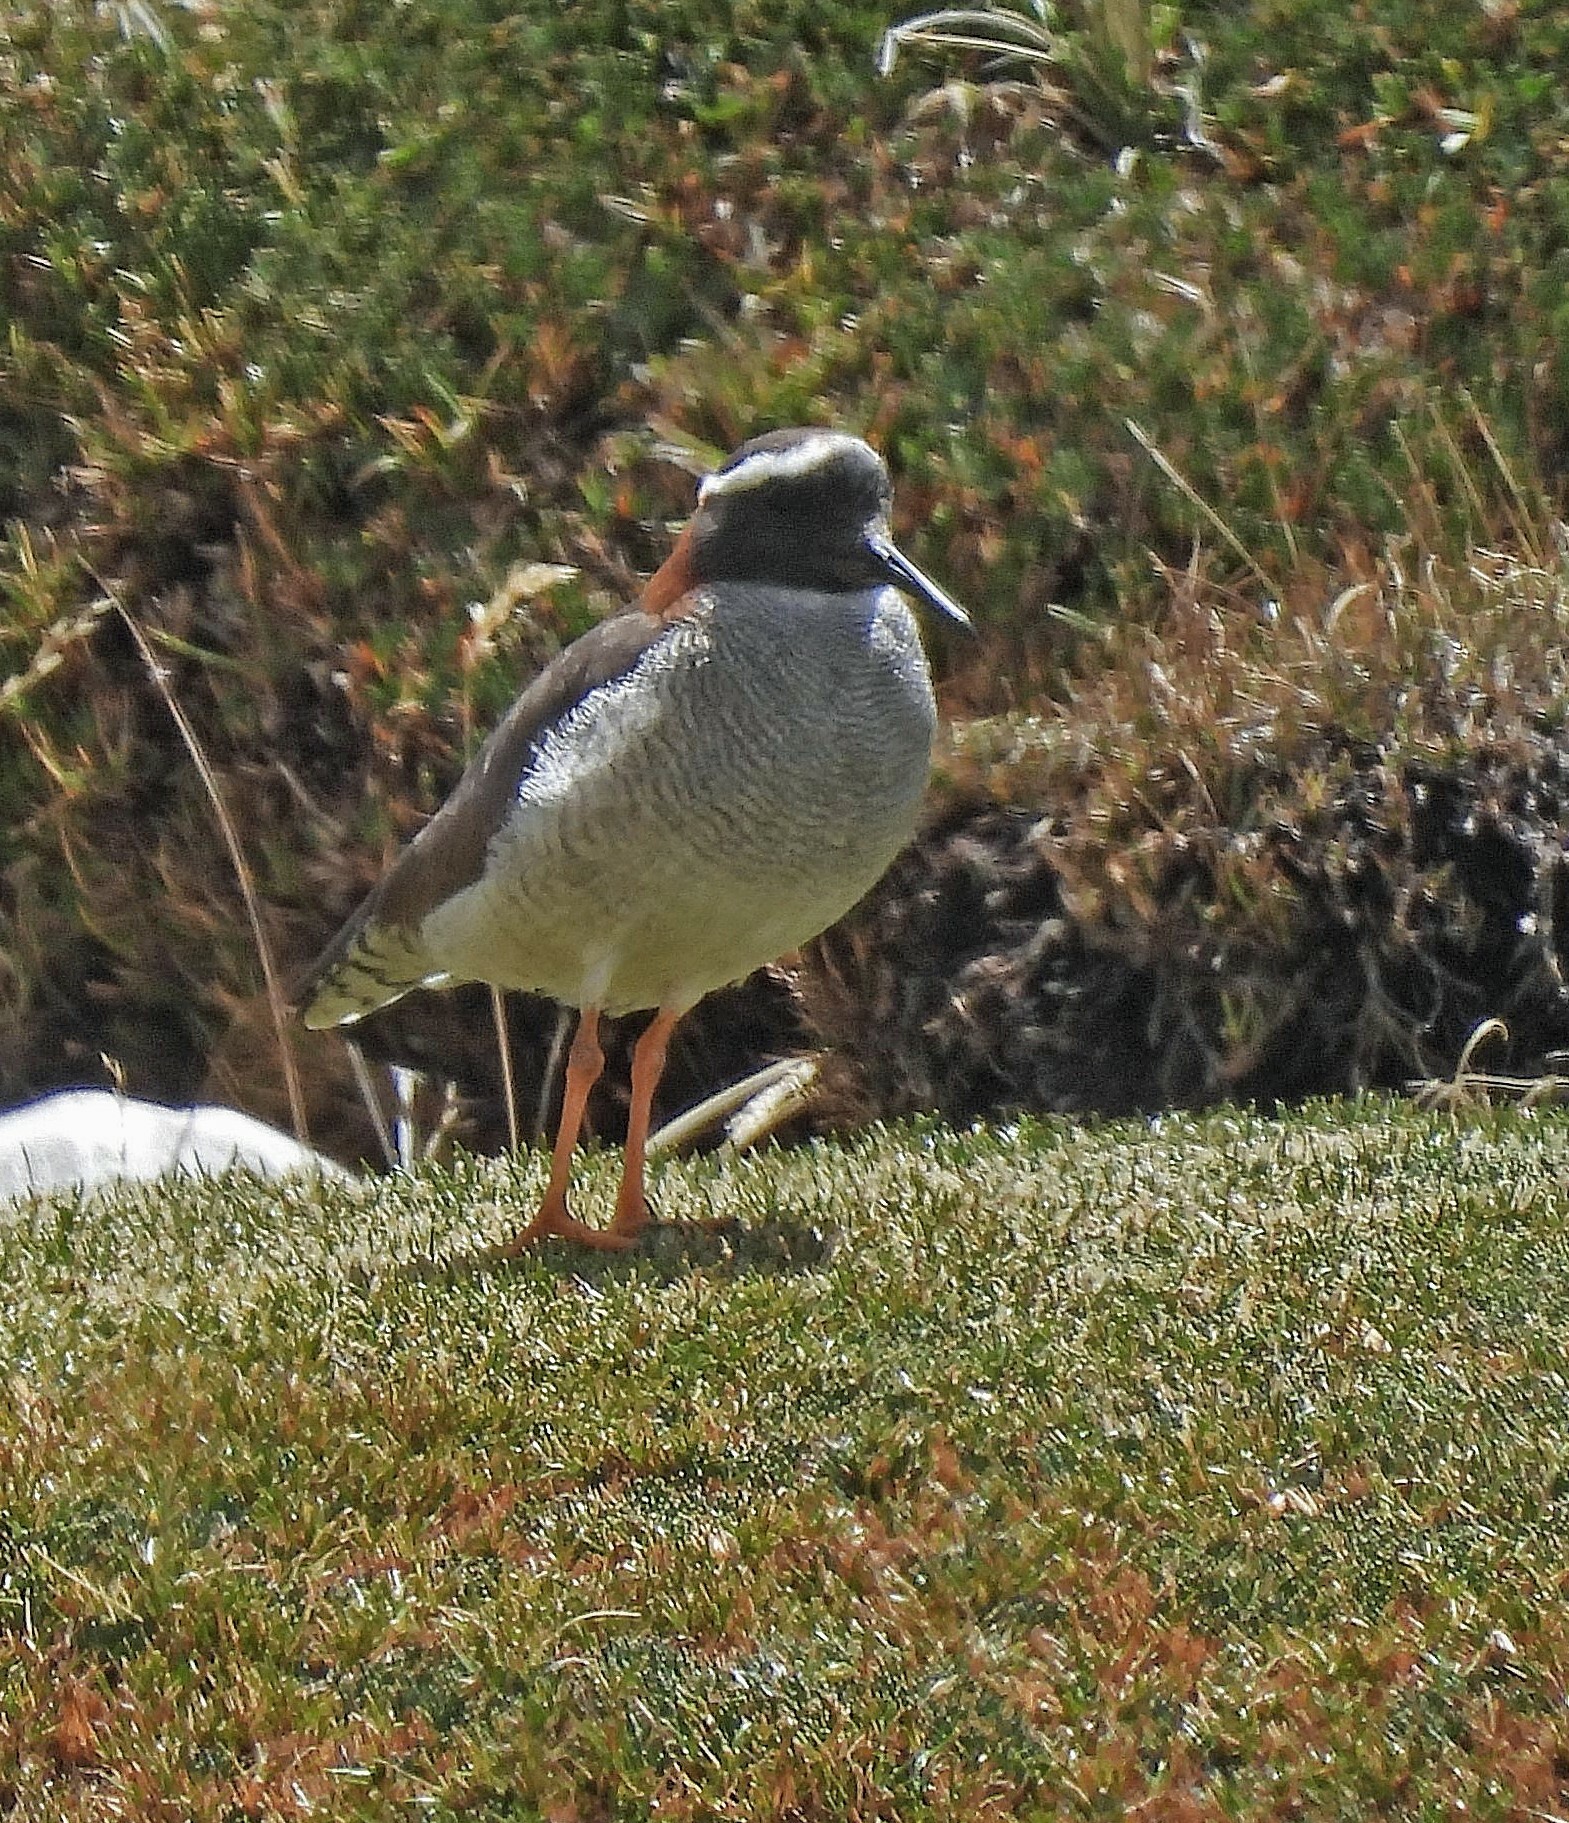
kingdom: Animalia
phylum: Chordata
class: Aves
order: Charadriiformes
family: Charadriidae
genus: Phegornis
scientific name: Phegornis mitchellii
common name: Diademed sandpiper-plover
